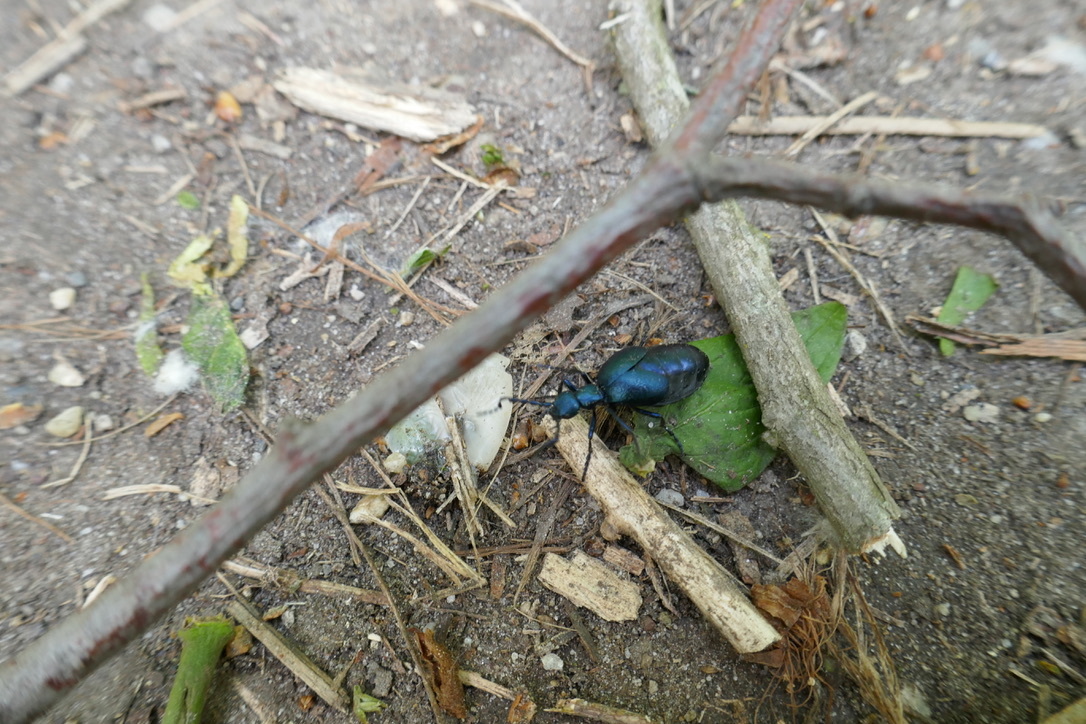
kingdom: Animalia
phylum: Arthropoda
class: Insecta
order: Coleoptera
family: Meloidae
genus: Meloe
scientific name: Meloe violaceus
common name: Violet oil-beetle
